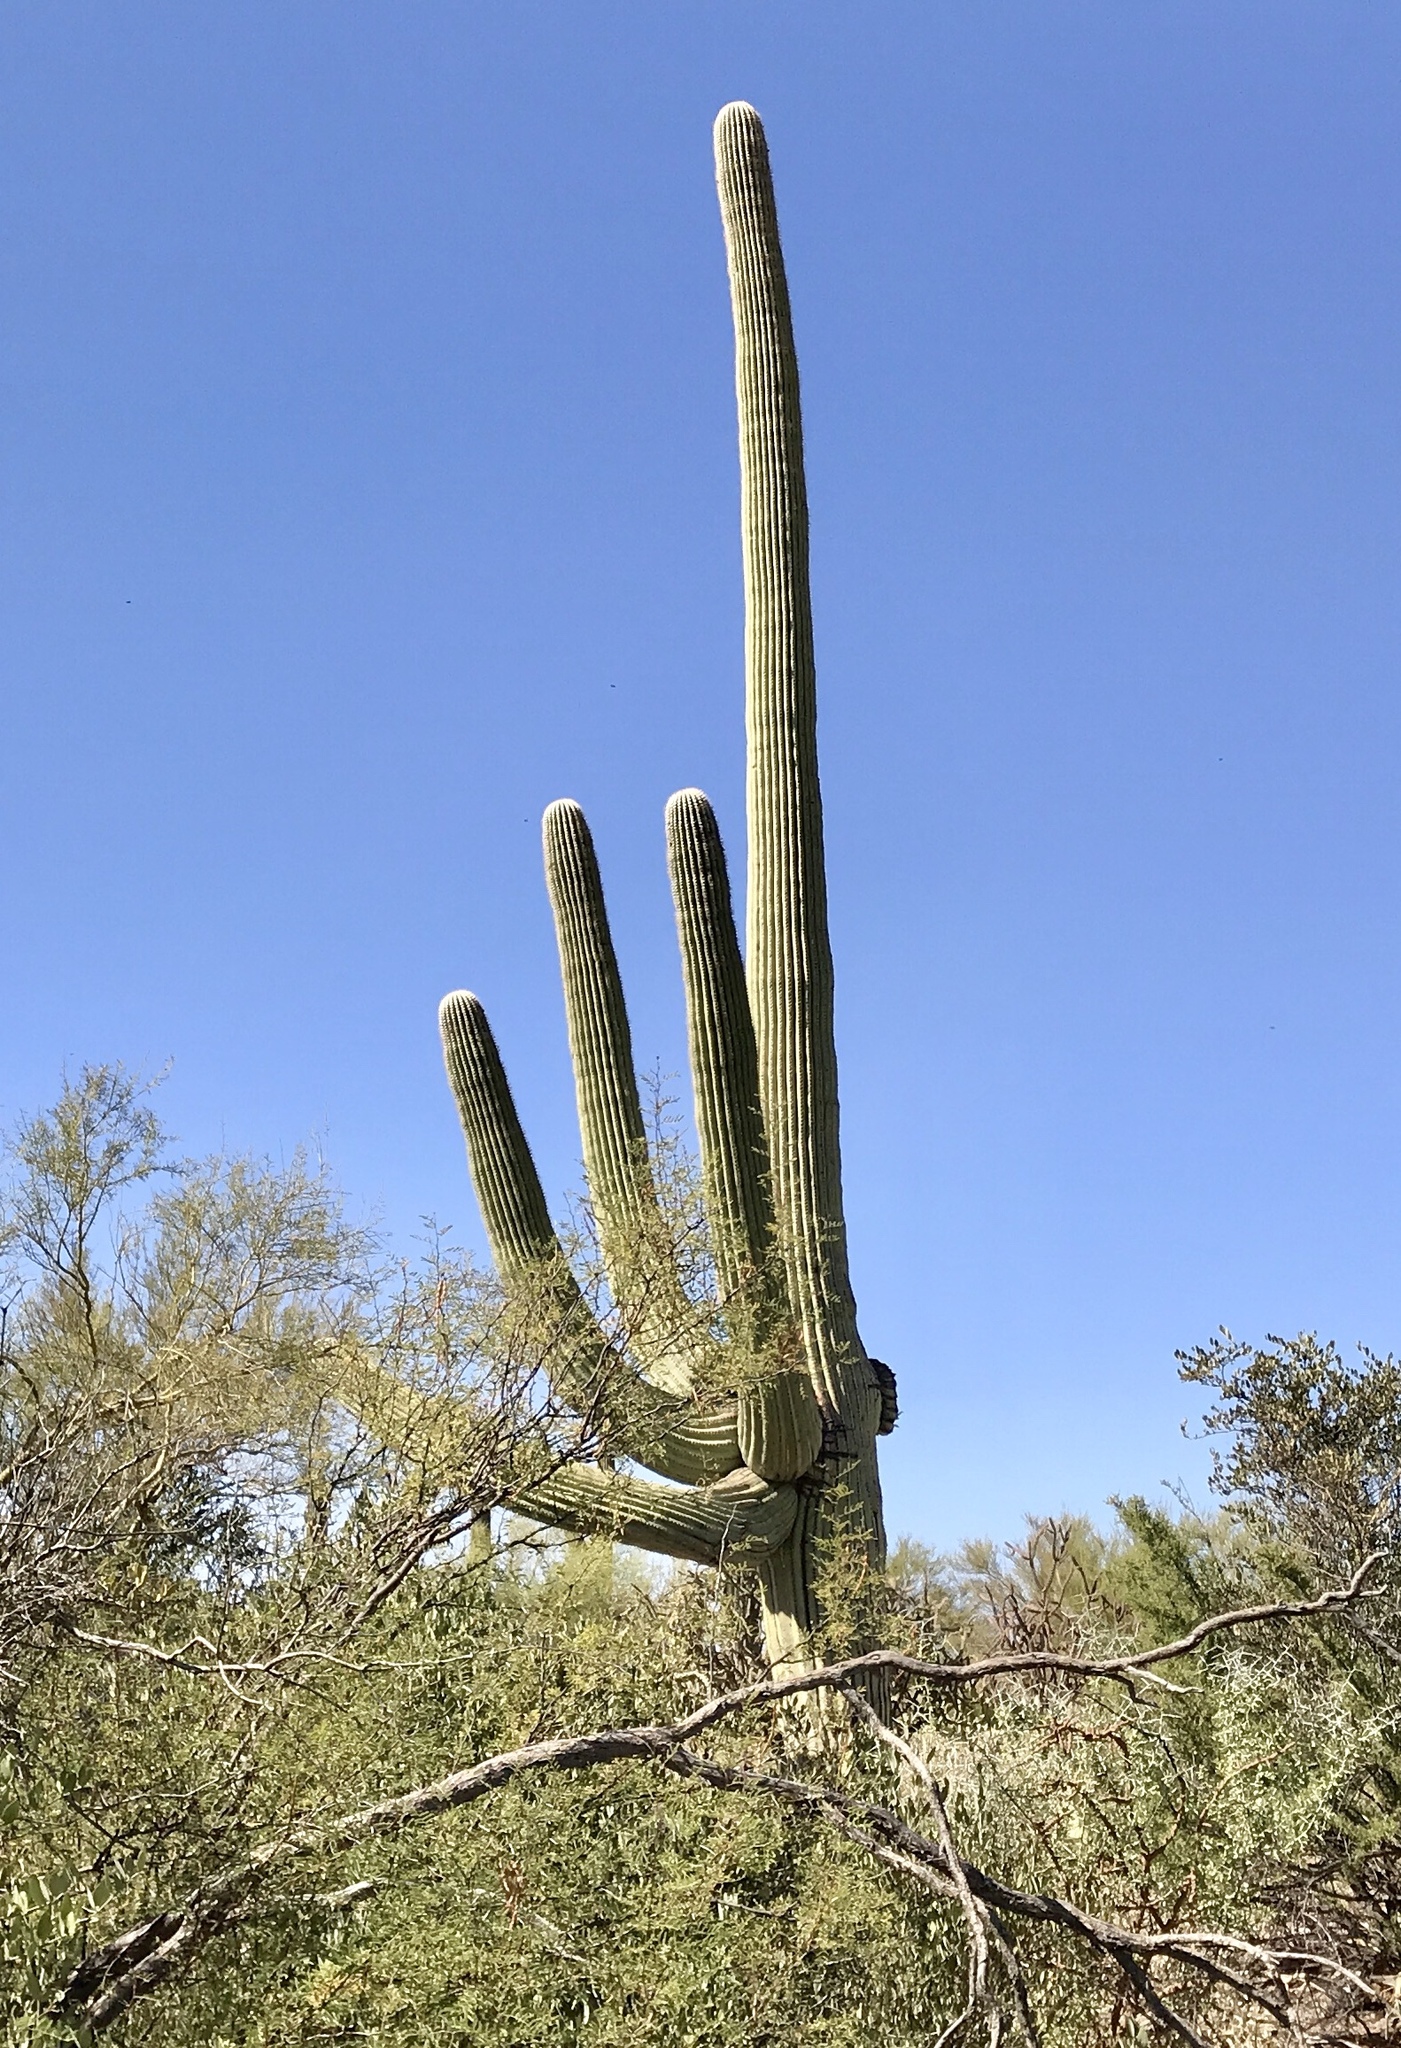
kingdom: Plantae
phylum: Tracheophyta
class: Magnoliopsida
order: Caryophyllales
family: Cactaceae
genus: Carnegiea
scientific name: Carnegiea gigantea
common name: Saguaro
